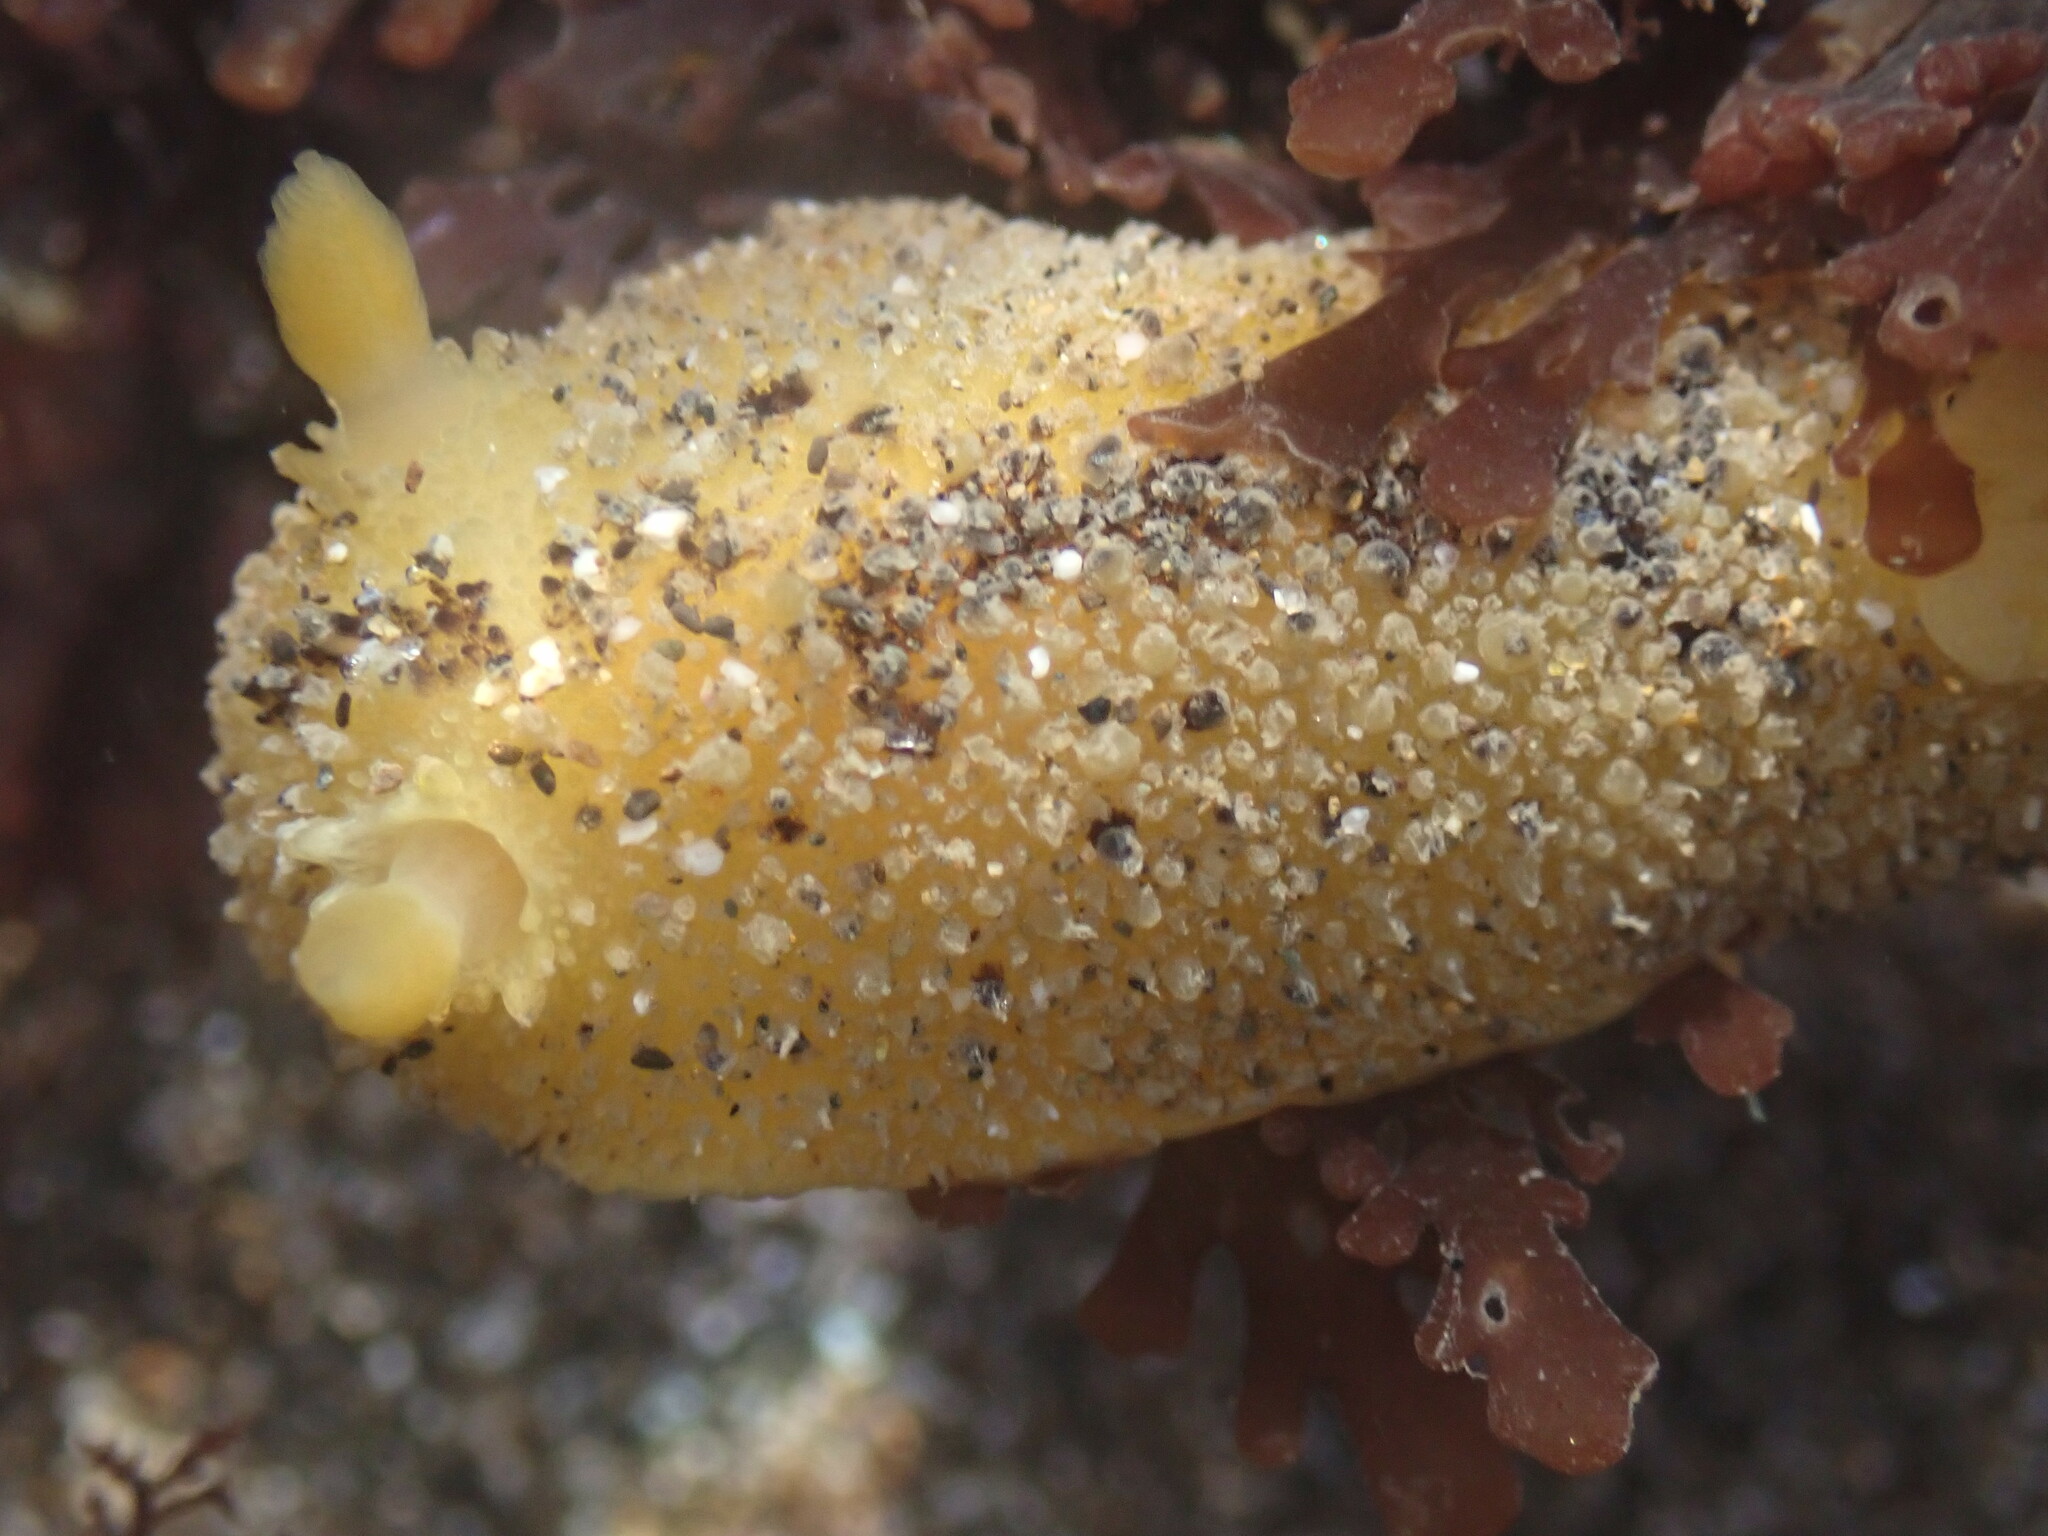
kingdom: Animalia
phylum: Mollusca
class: Gastropoda
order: Nudibranchia
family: Dorididae
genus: Doris
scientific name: Doris montereyensis
